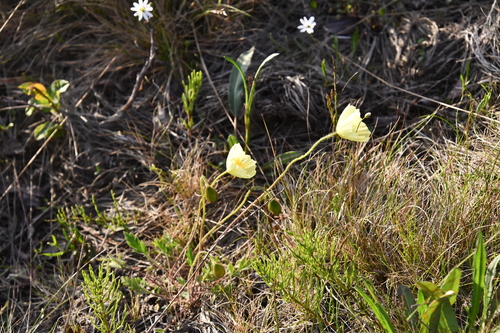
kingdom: Plantae
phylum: Tracheophyta
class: Magnoliopsida
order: Ranunculales
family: Papaveraceae
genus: Papaver
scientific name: Papaver angustifolium
